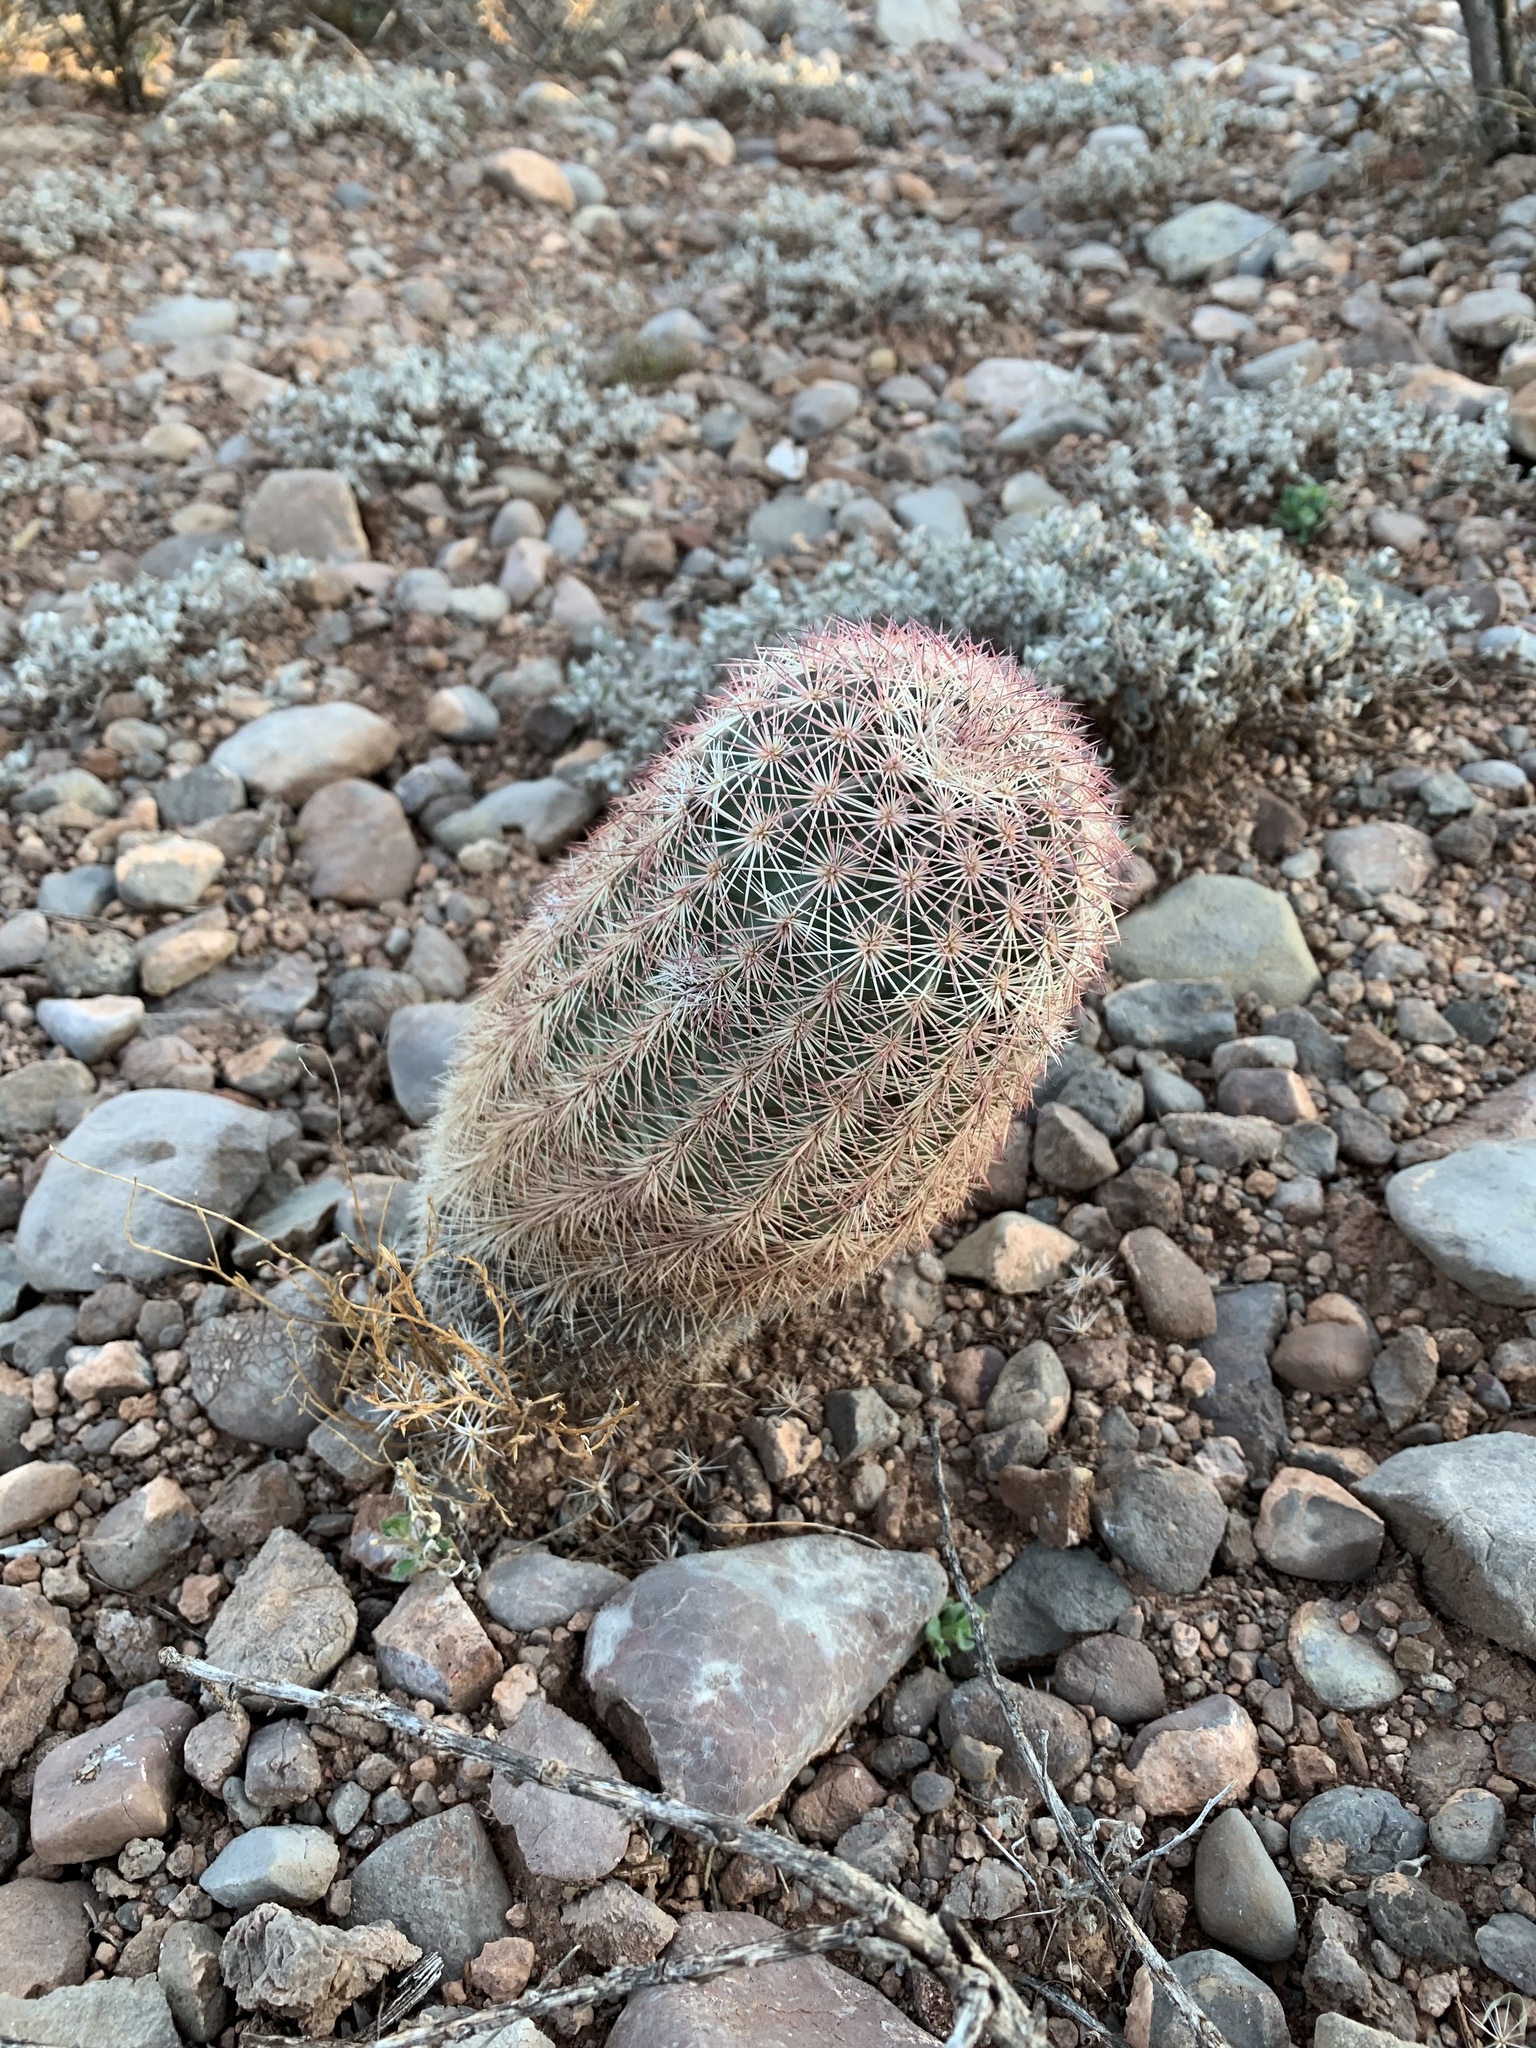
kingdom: Plantae
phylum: Tracheophyta
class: Magnoliopsida
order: Caryophyllales
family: Cactaceae
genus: Echinocereus
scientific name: Echinocereus dasyacanthus
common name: Spiny hedgehog cactus
